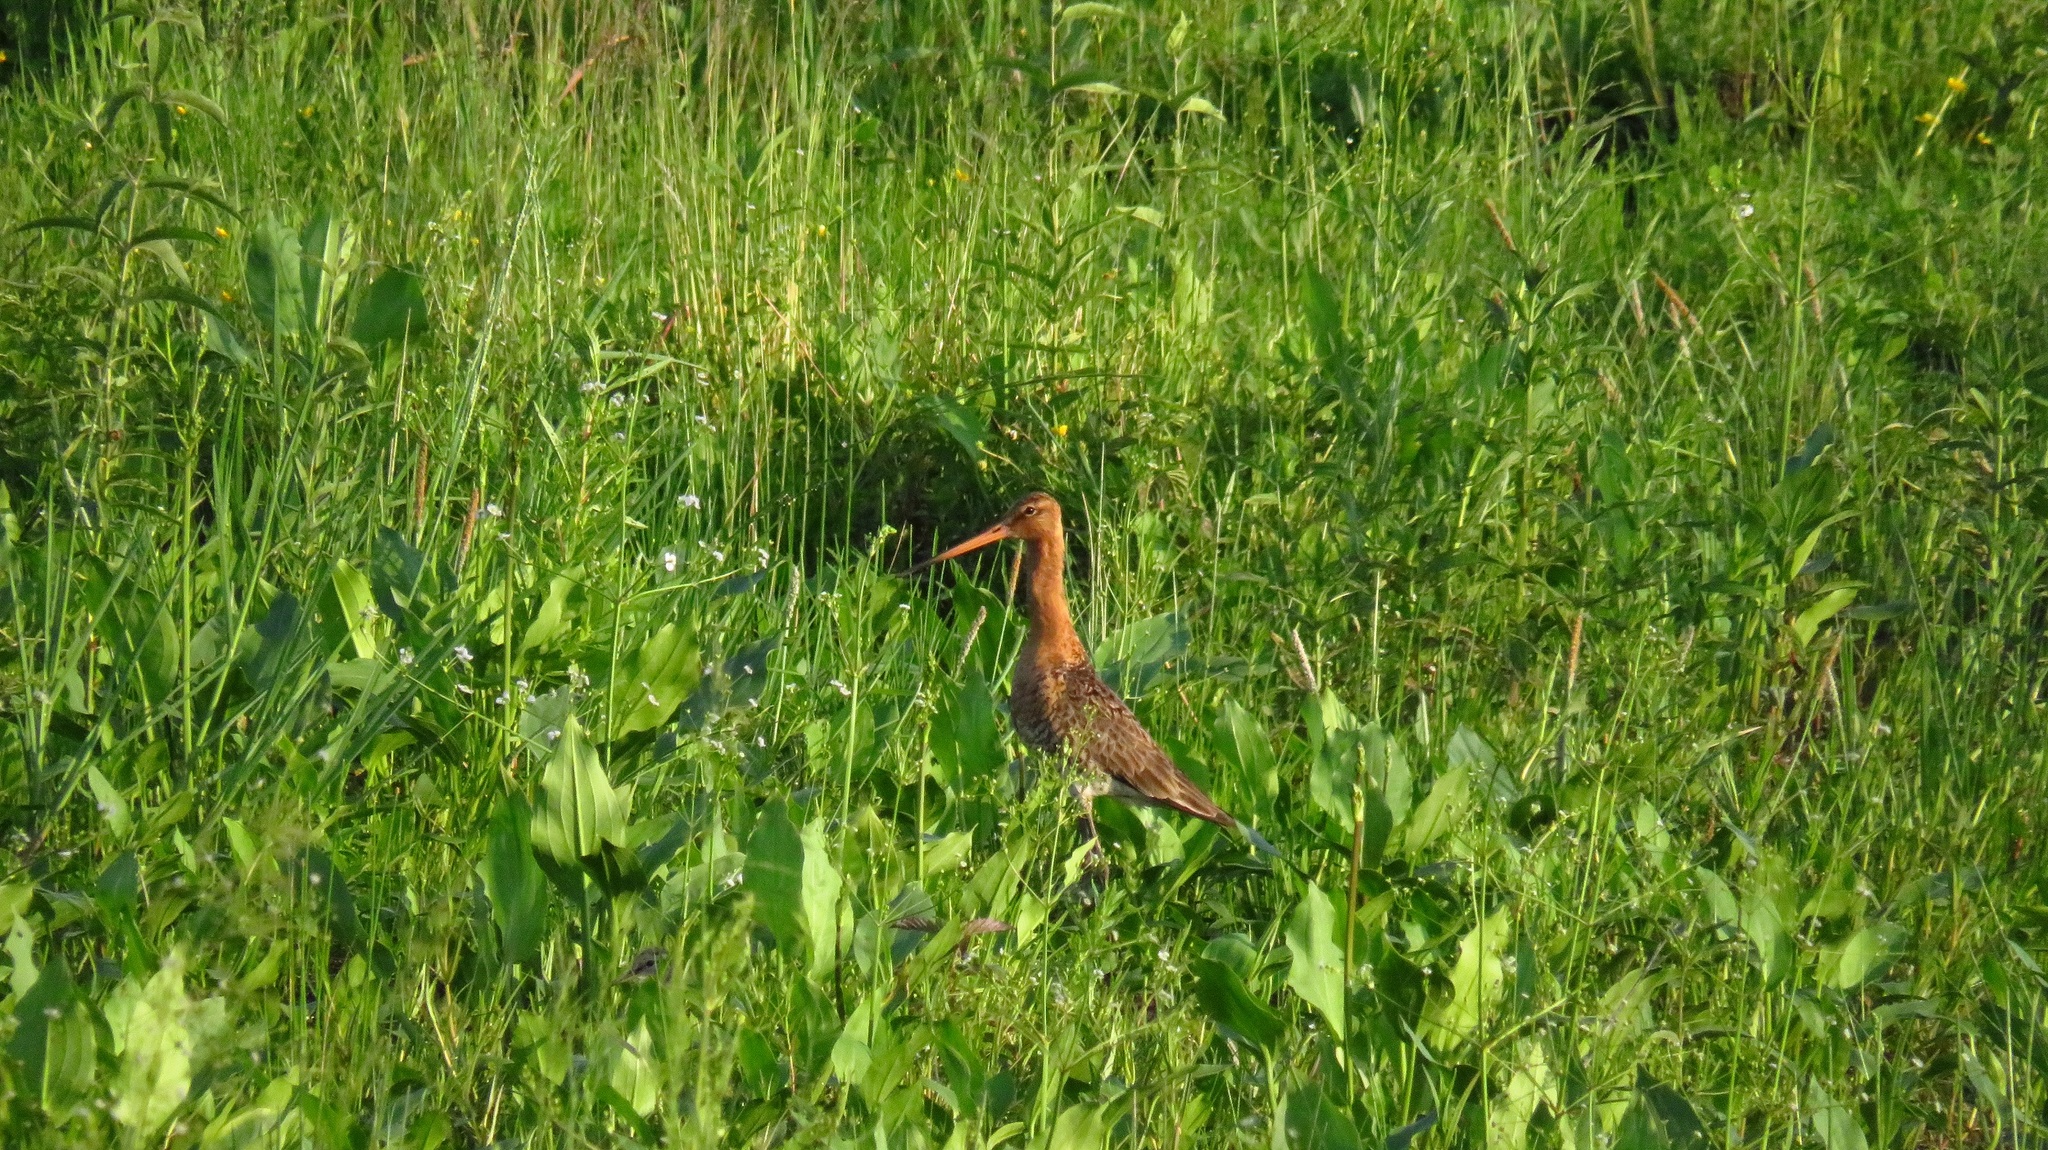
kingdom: Animalia
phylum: Chordata
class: Aves
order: Charadriiformes
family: Scolopacidae
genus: Limosa
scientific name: Limosa limosa
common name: Black-tailed godwit
